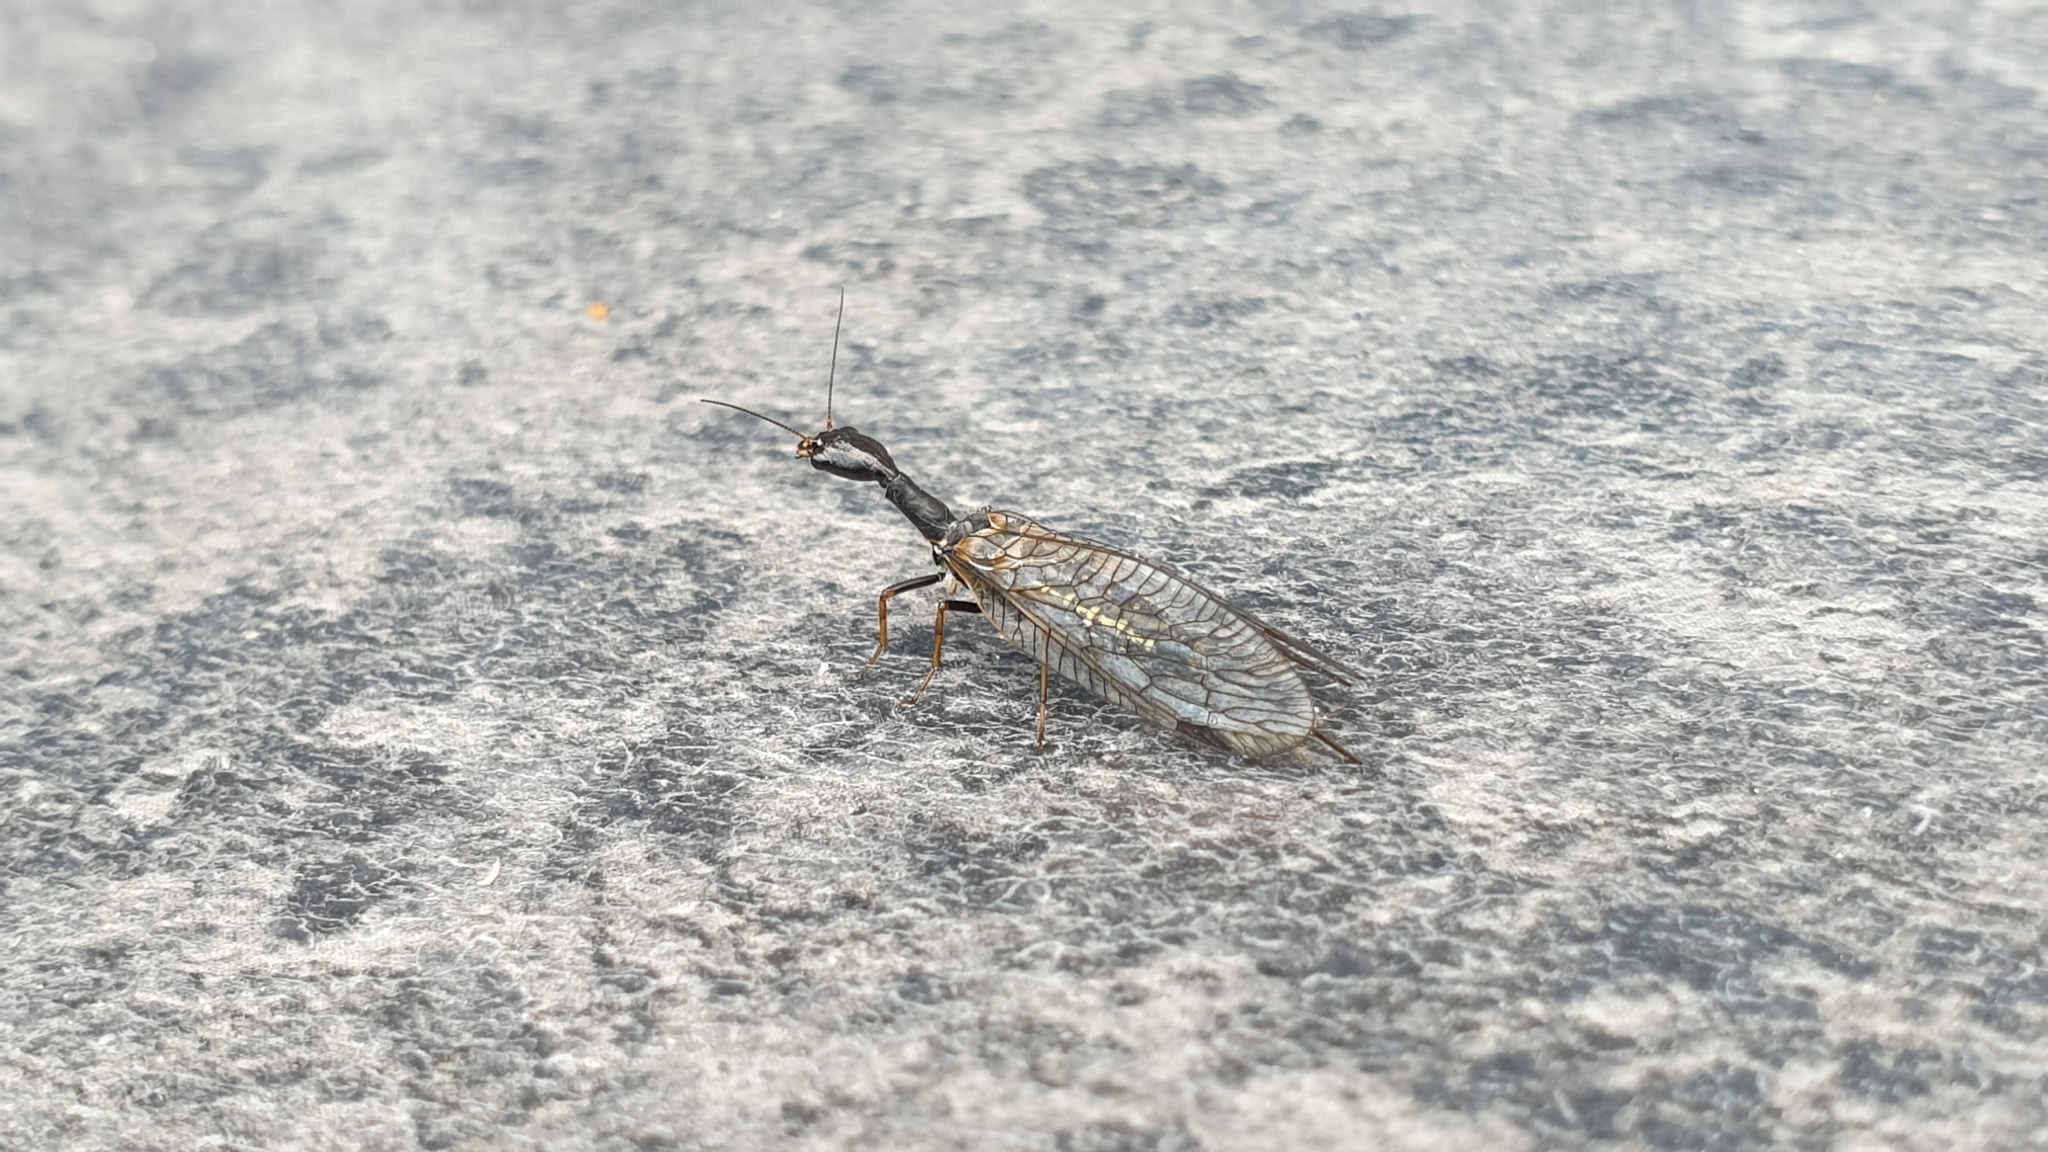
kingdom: Animalia
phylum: Arthropoda
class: Insecta
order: Raphidioptera
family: Raphidiidae
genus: Phaeostigma
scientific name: Phaeostigma notatum
